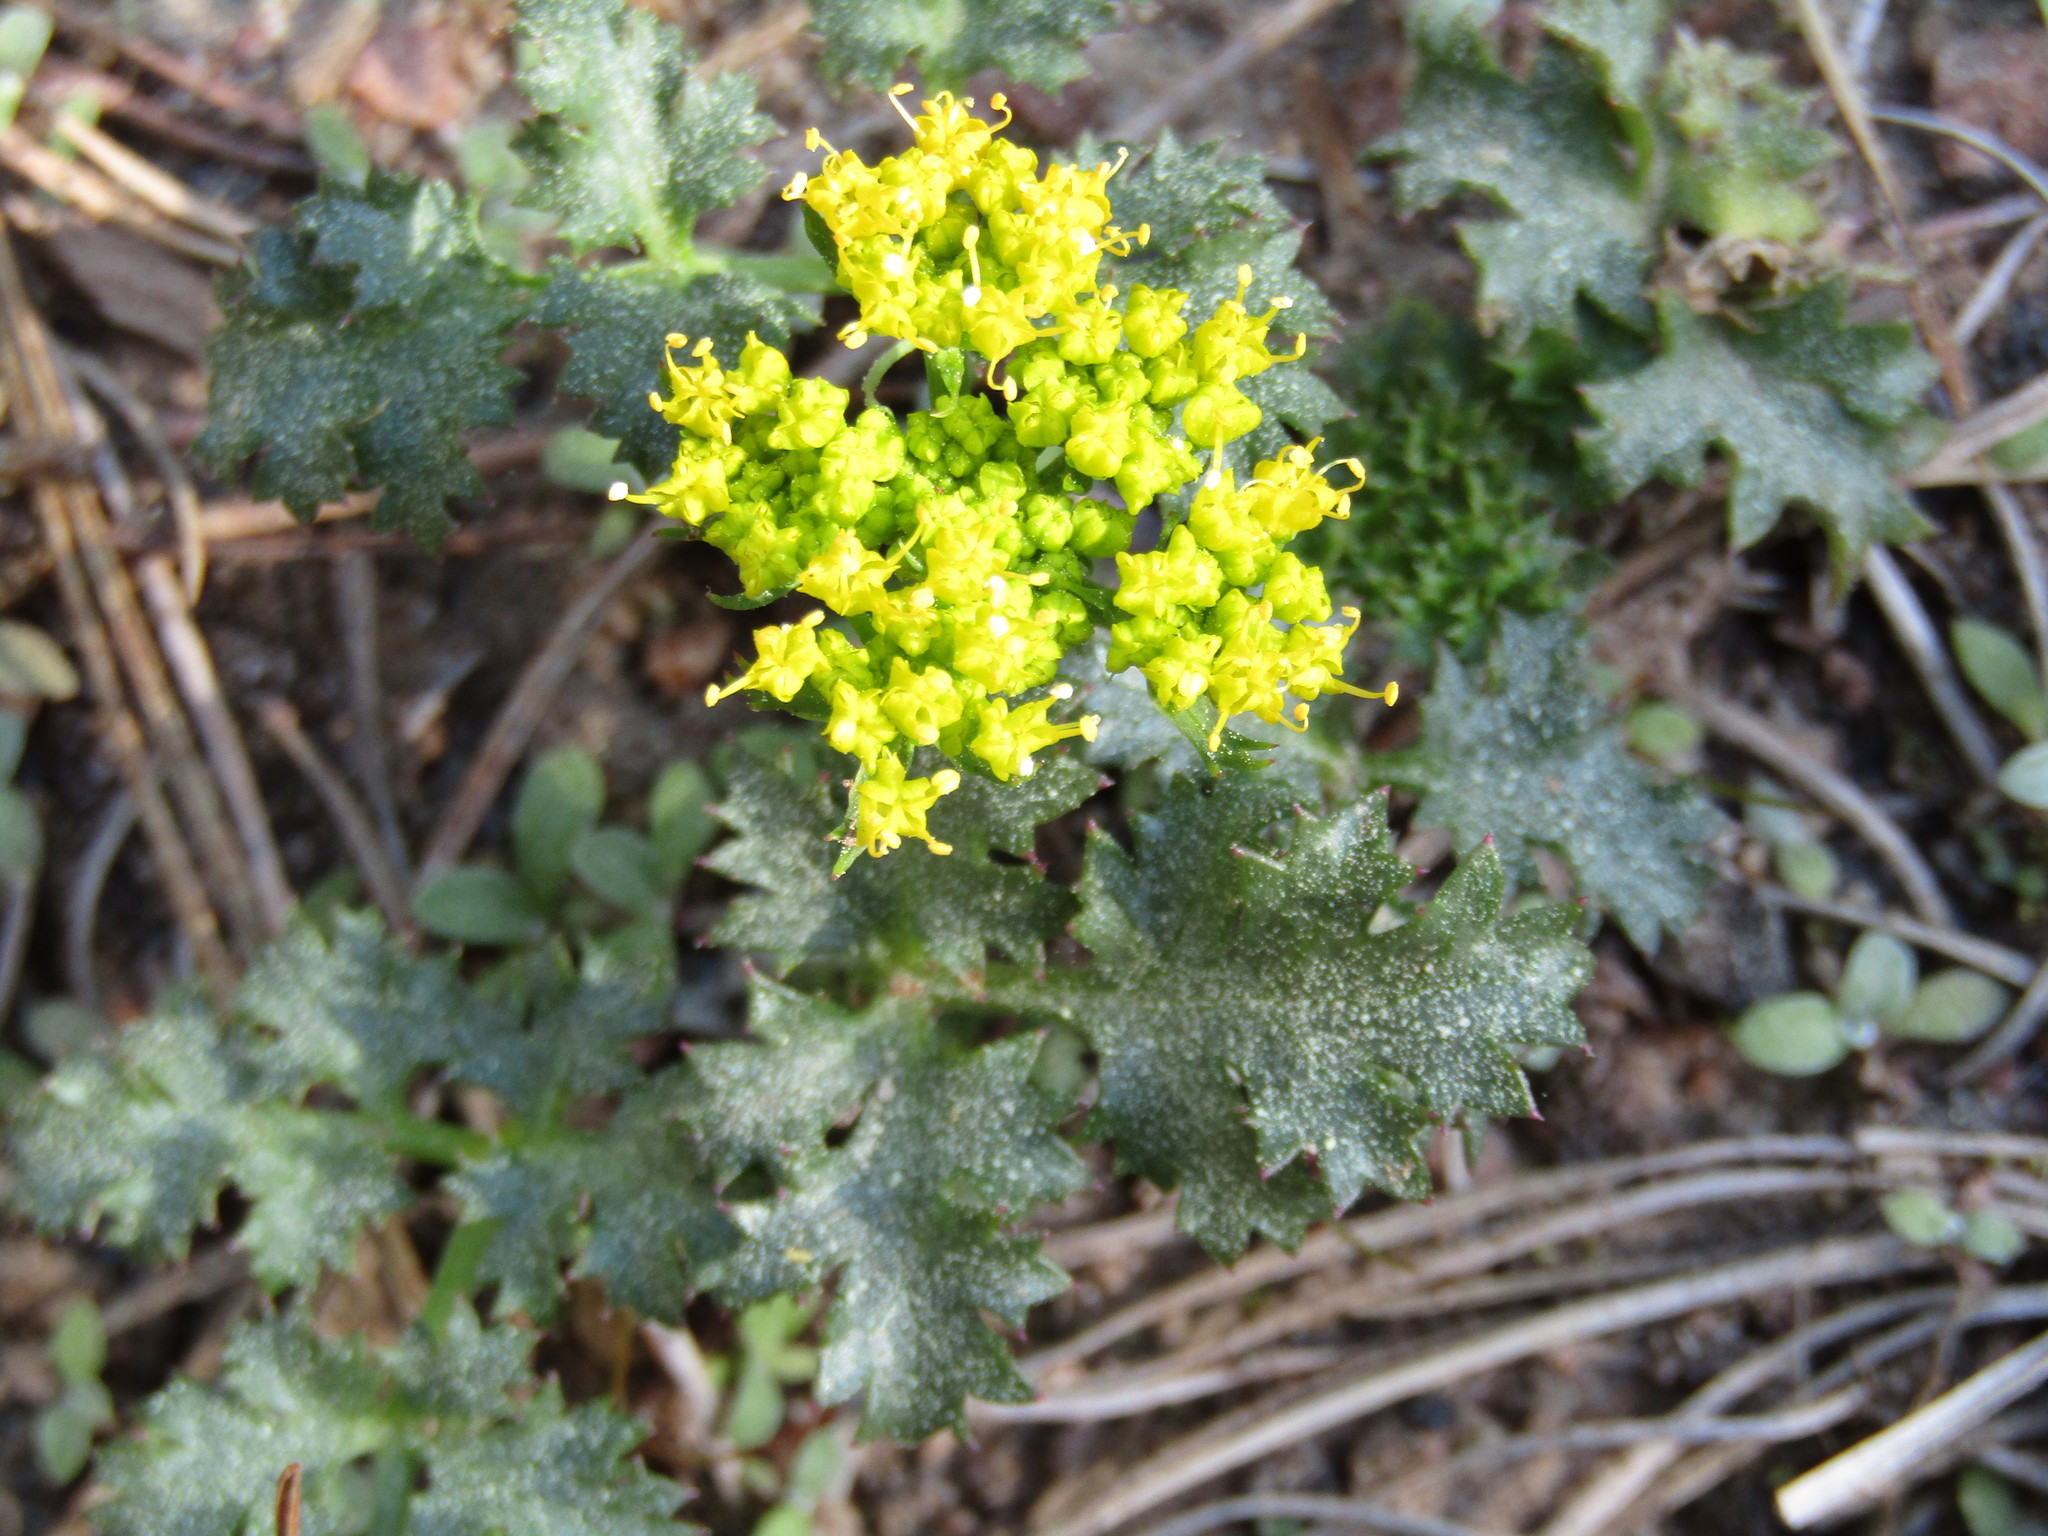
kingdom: Plantae
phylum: Tracheophyta
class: Magnoliopsida
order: Apiales
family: Apiaceae
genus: Lomatium
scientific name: Lomatium parvifolium
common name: Small-leaf lomatium
